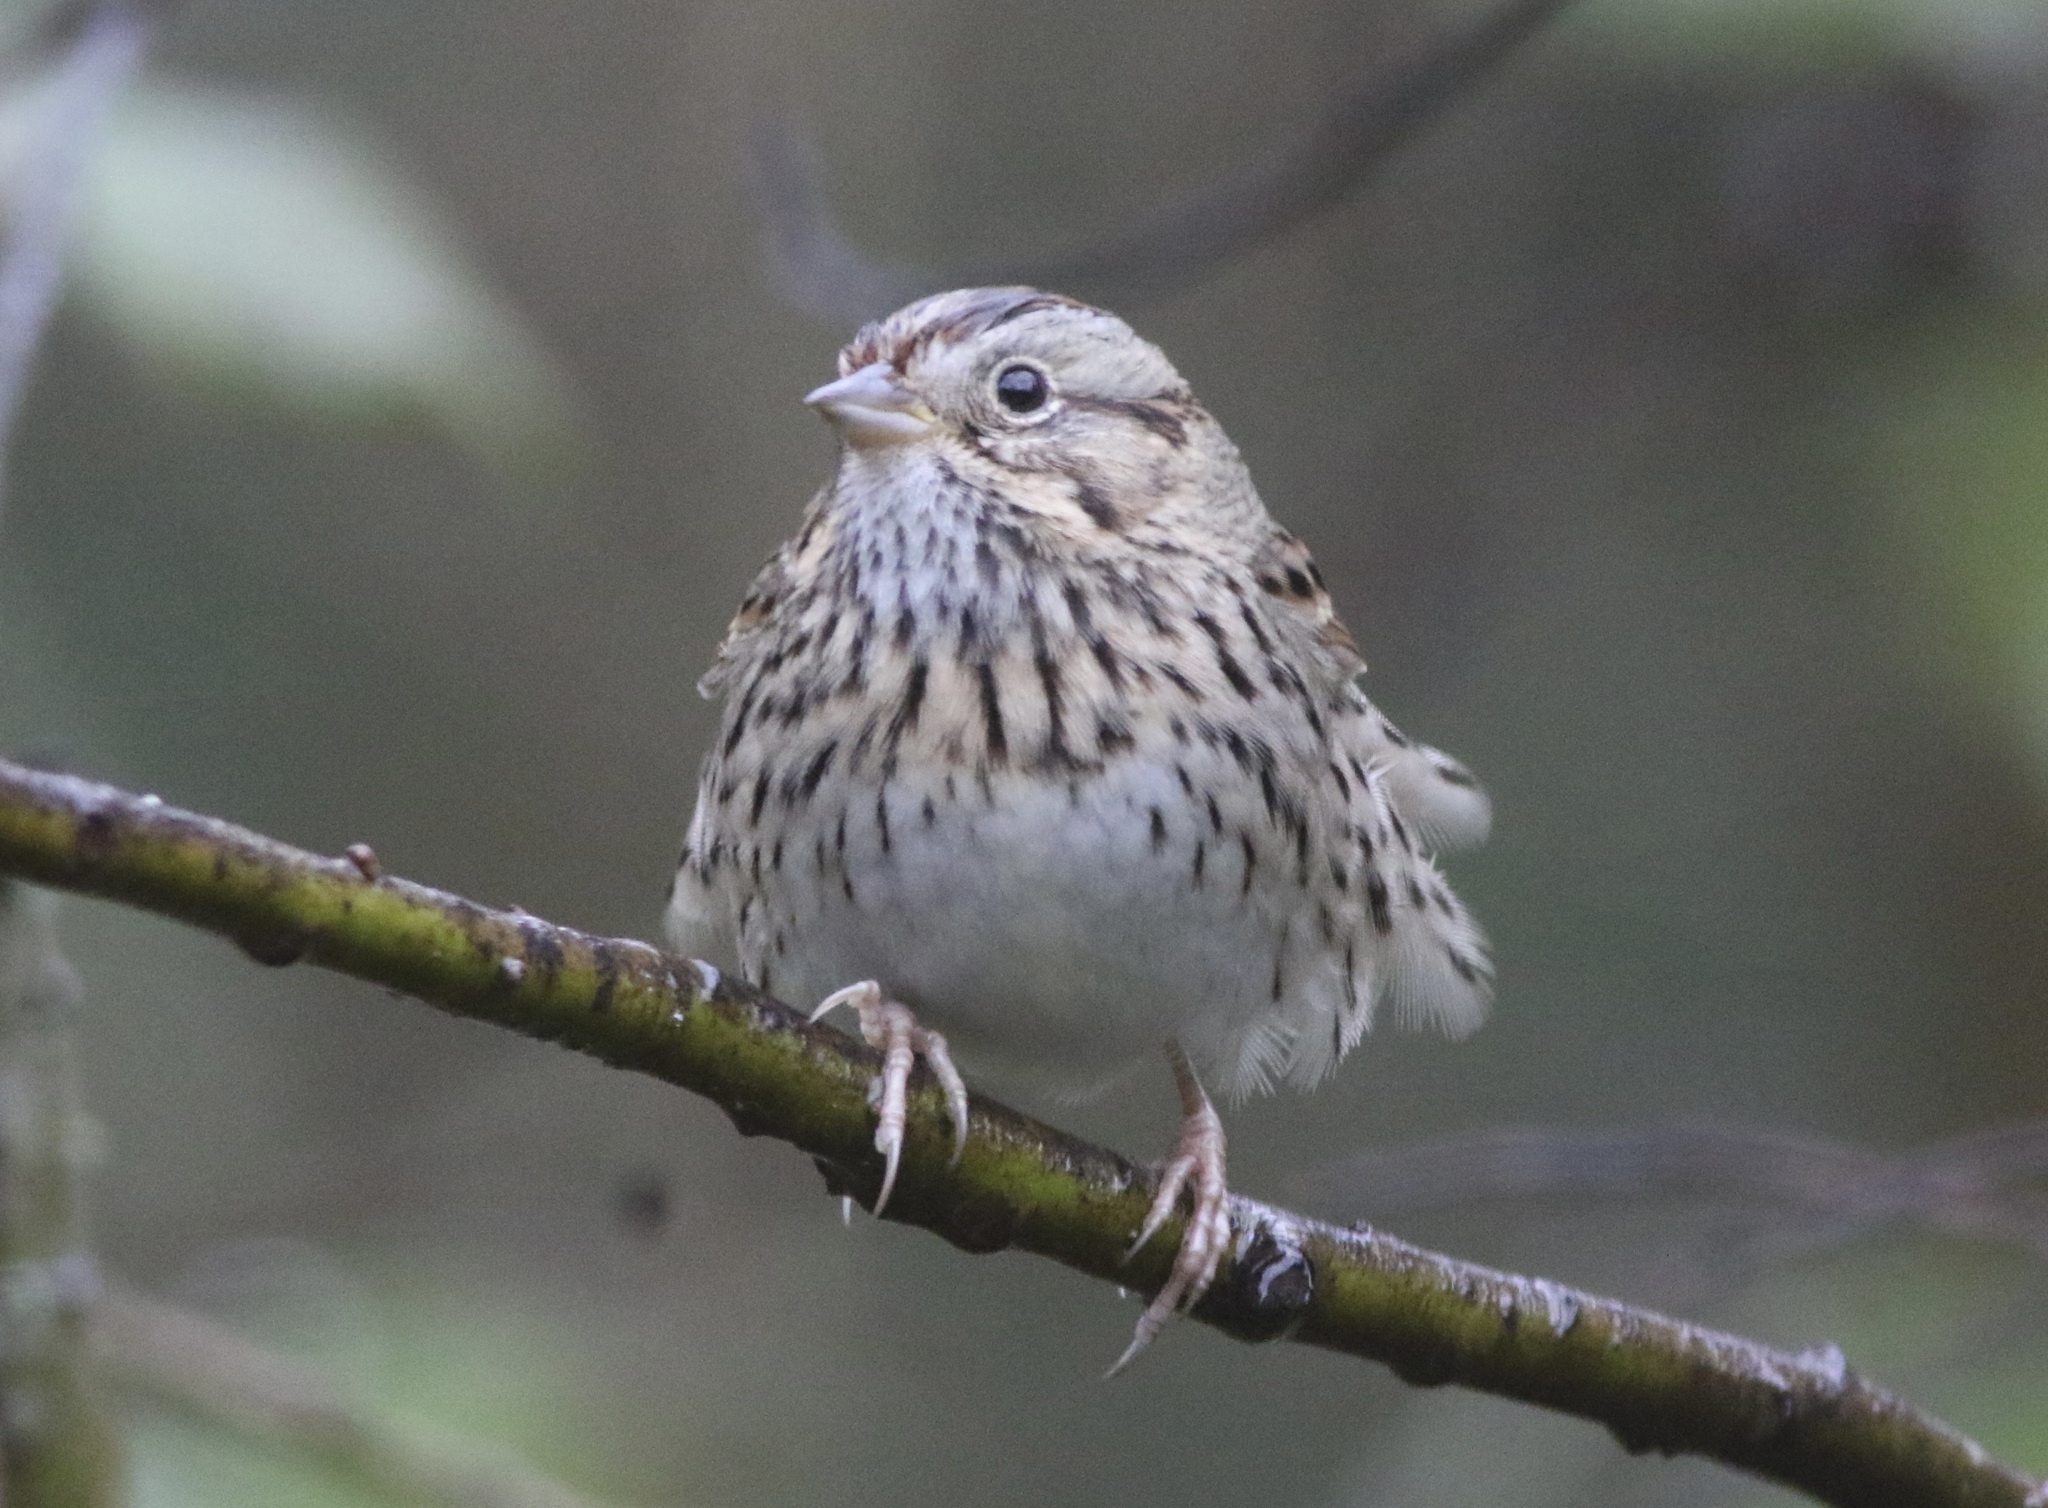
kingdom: Animalia
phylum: Chordata
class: Aves
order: Passeriformes
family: Passerellidae
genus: Melospiza
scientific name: Melospiza lincolnii
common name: Lincoln's sparrow
